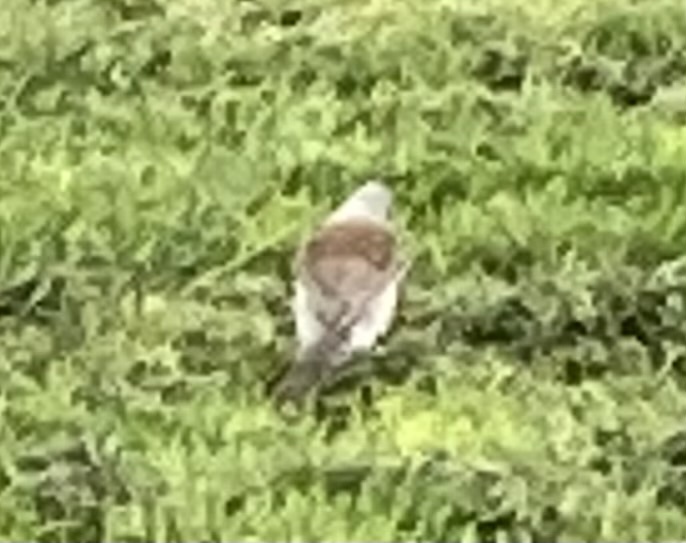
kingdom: Animalia
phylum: Chordata
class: Aves
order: Passeriformes
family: Turdidae
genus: Turdus
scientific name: Turdus pilaris
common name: Fieldfare
